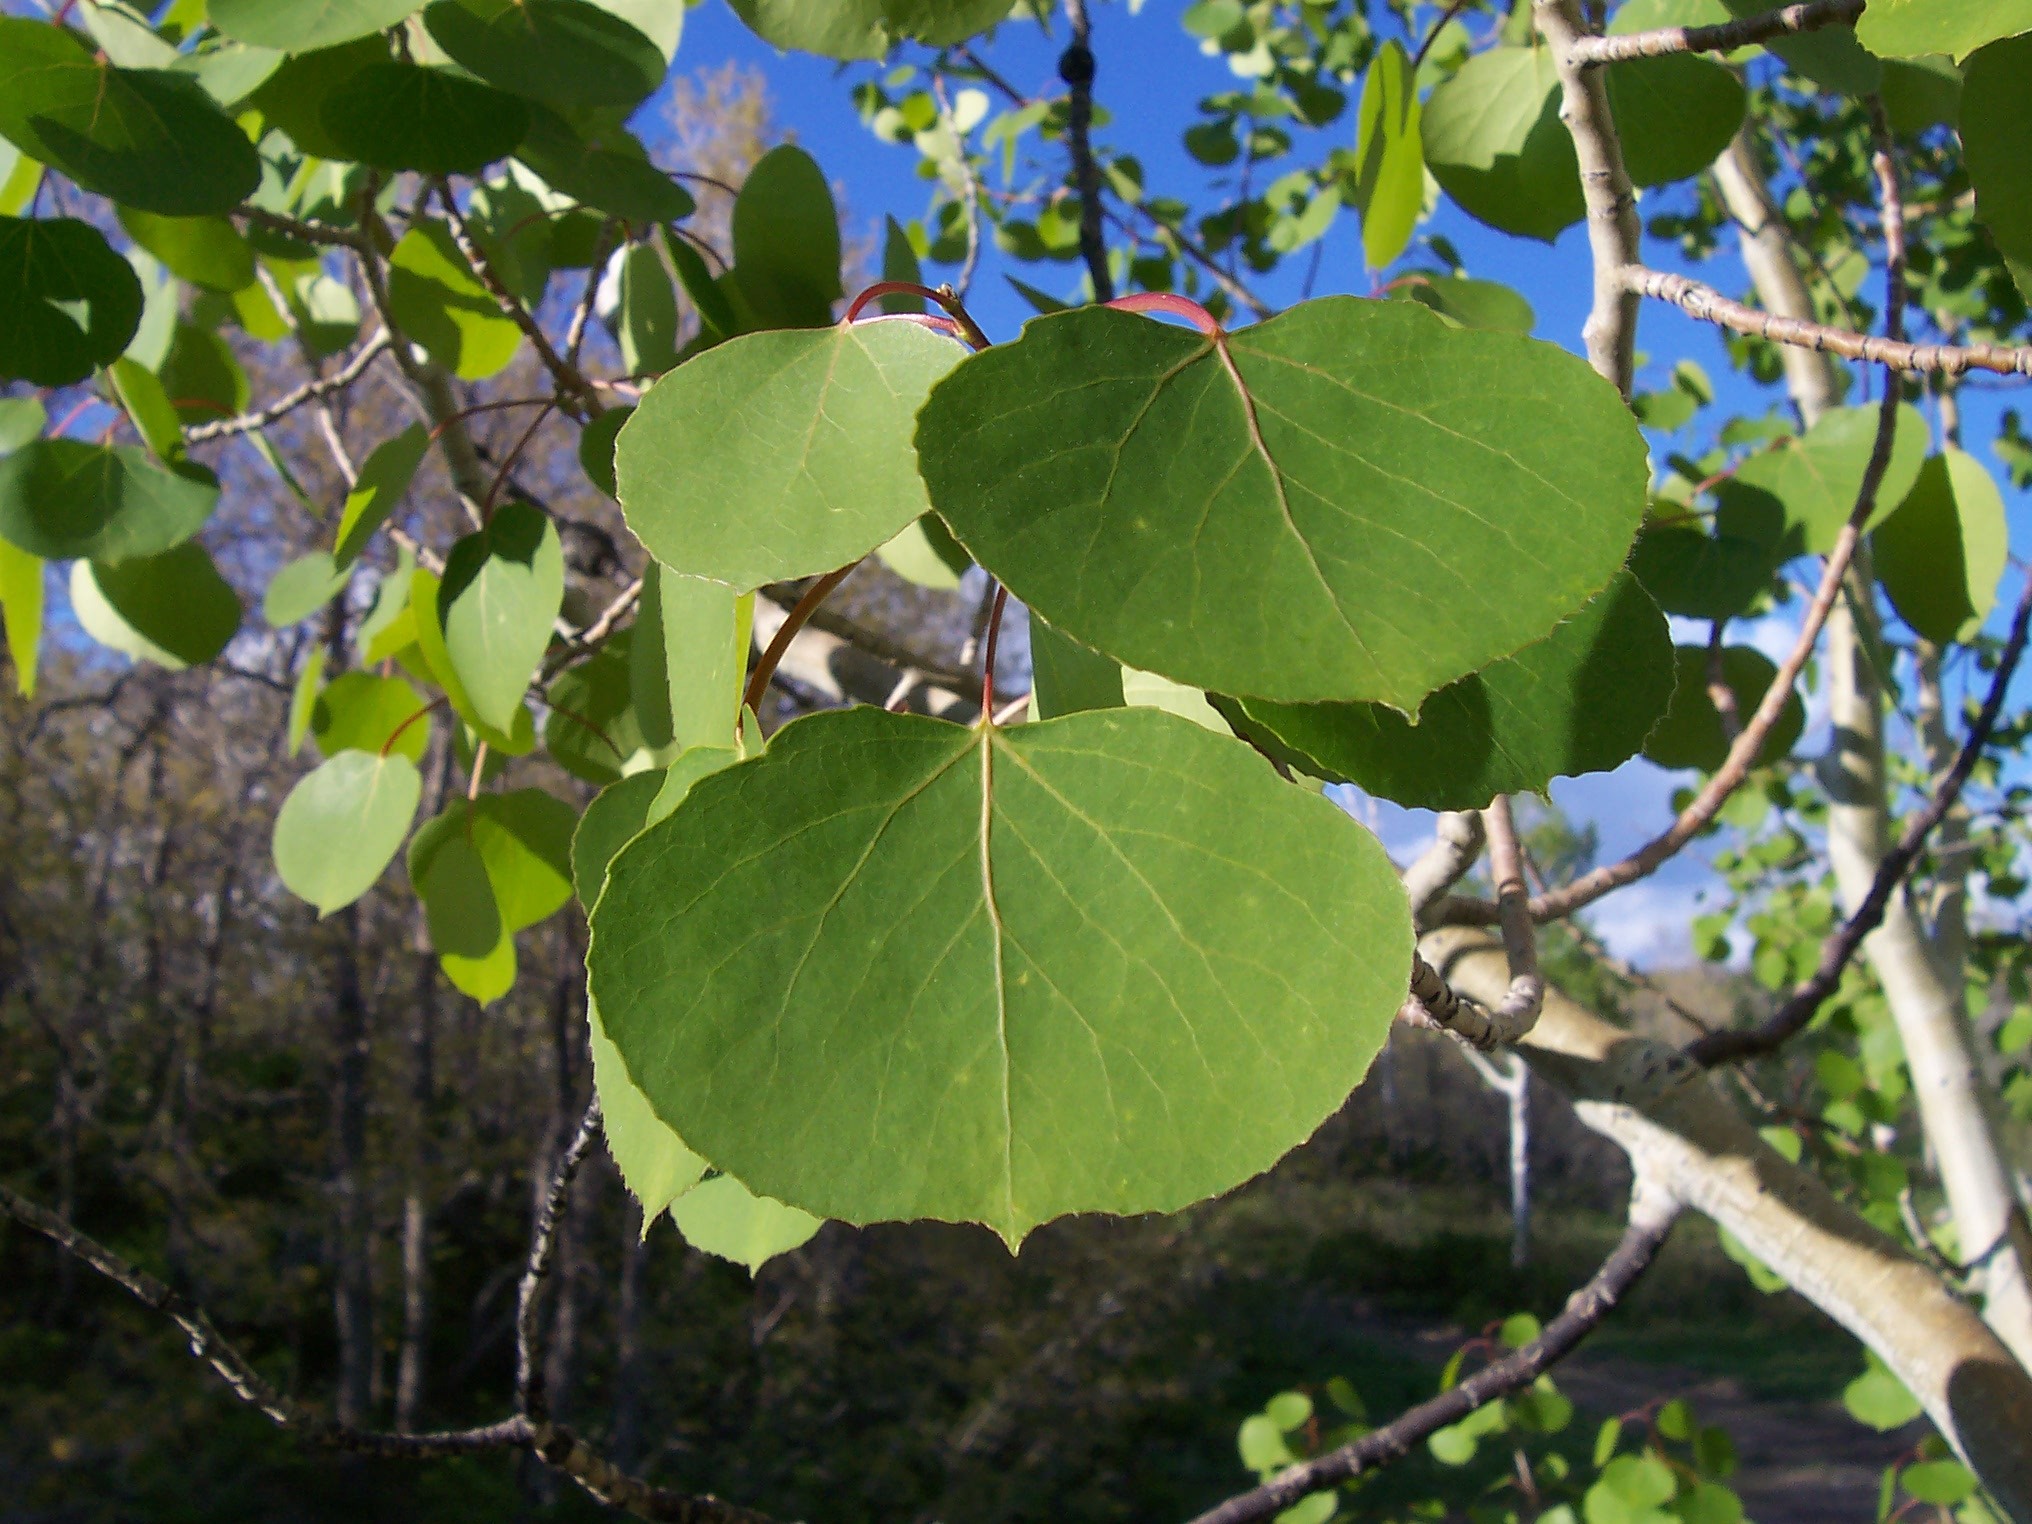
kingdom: Plantae
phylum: Tracheophyta
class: Magnoliopsida
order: Malpighiales
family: Salicaceae
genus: Populus
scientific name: Populus tremuloides
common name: Quaking aspen
